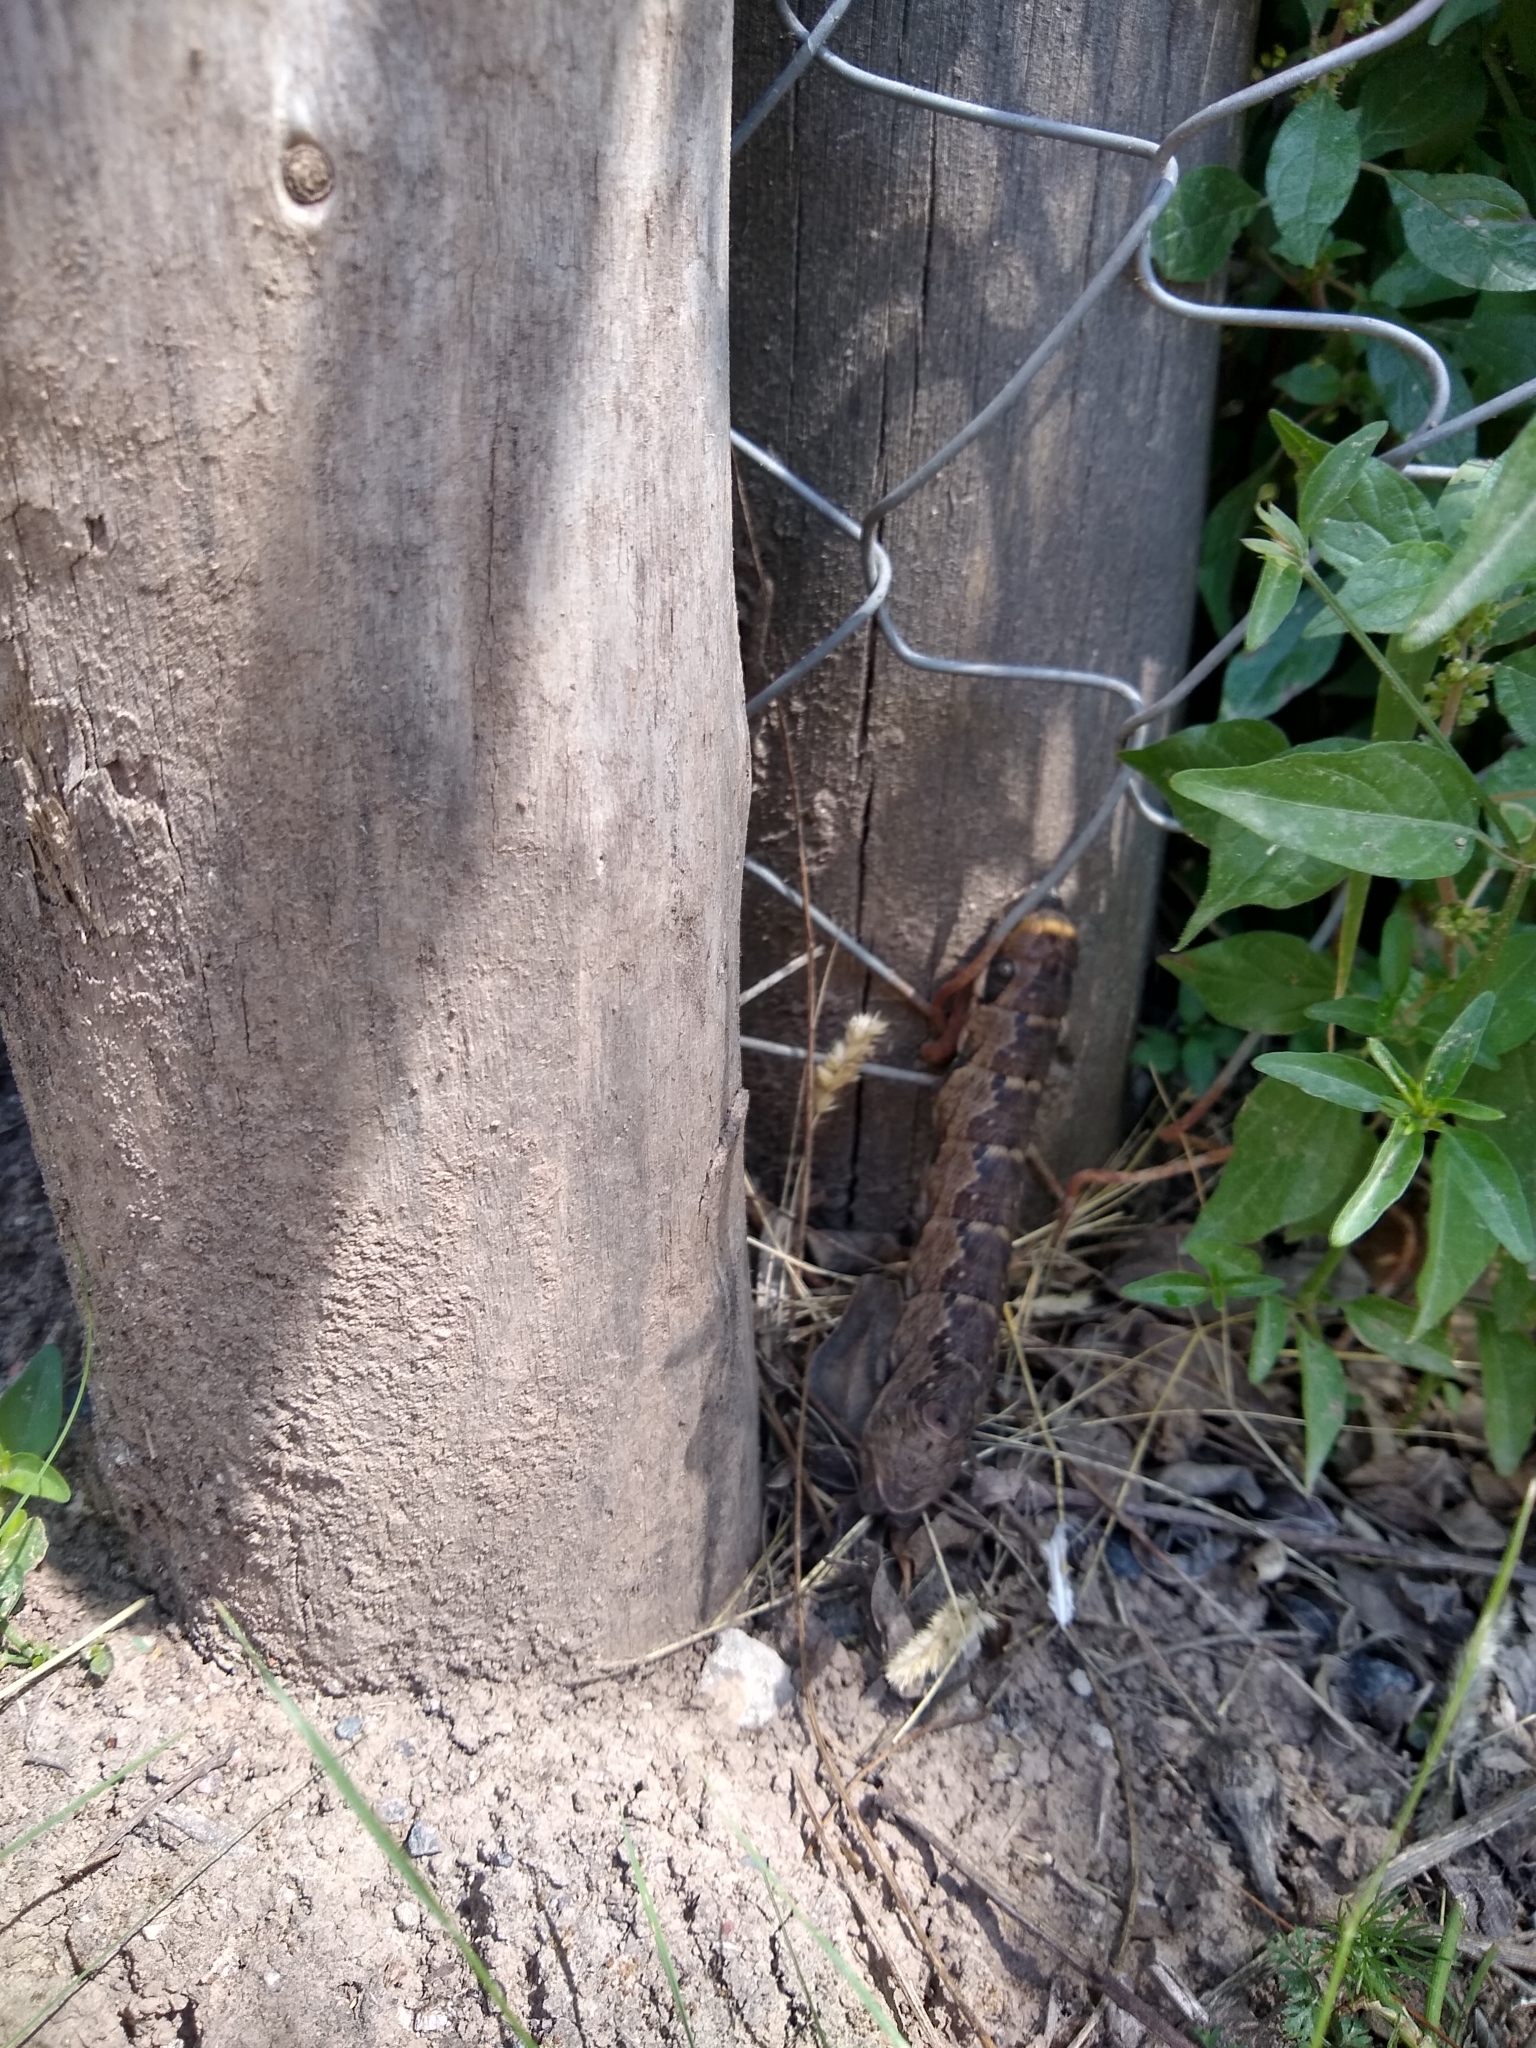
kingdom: Animalia
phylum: Arthropoda
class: Insecta
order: Lepidoptera
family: Sphingidae
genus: Eumorpha
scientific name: Eumorpha labruscae
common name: Gaudy sphinx
